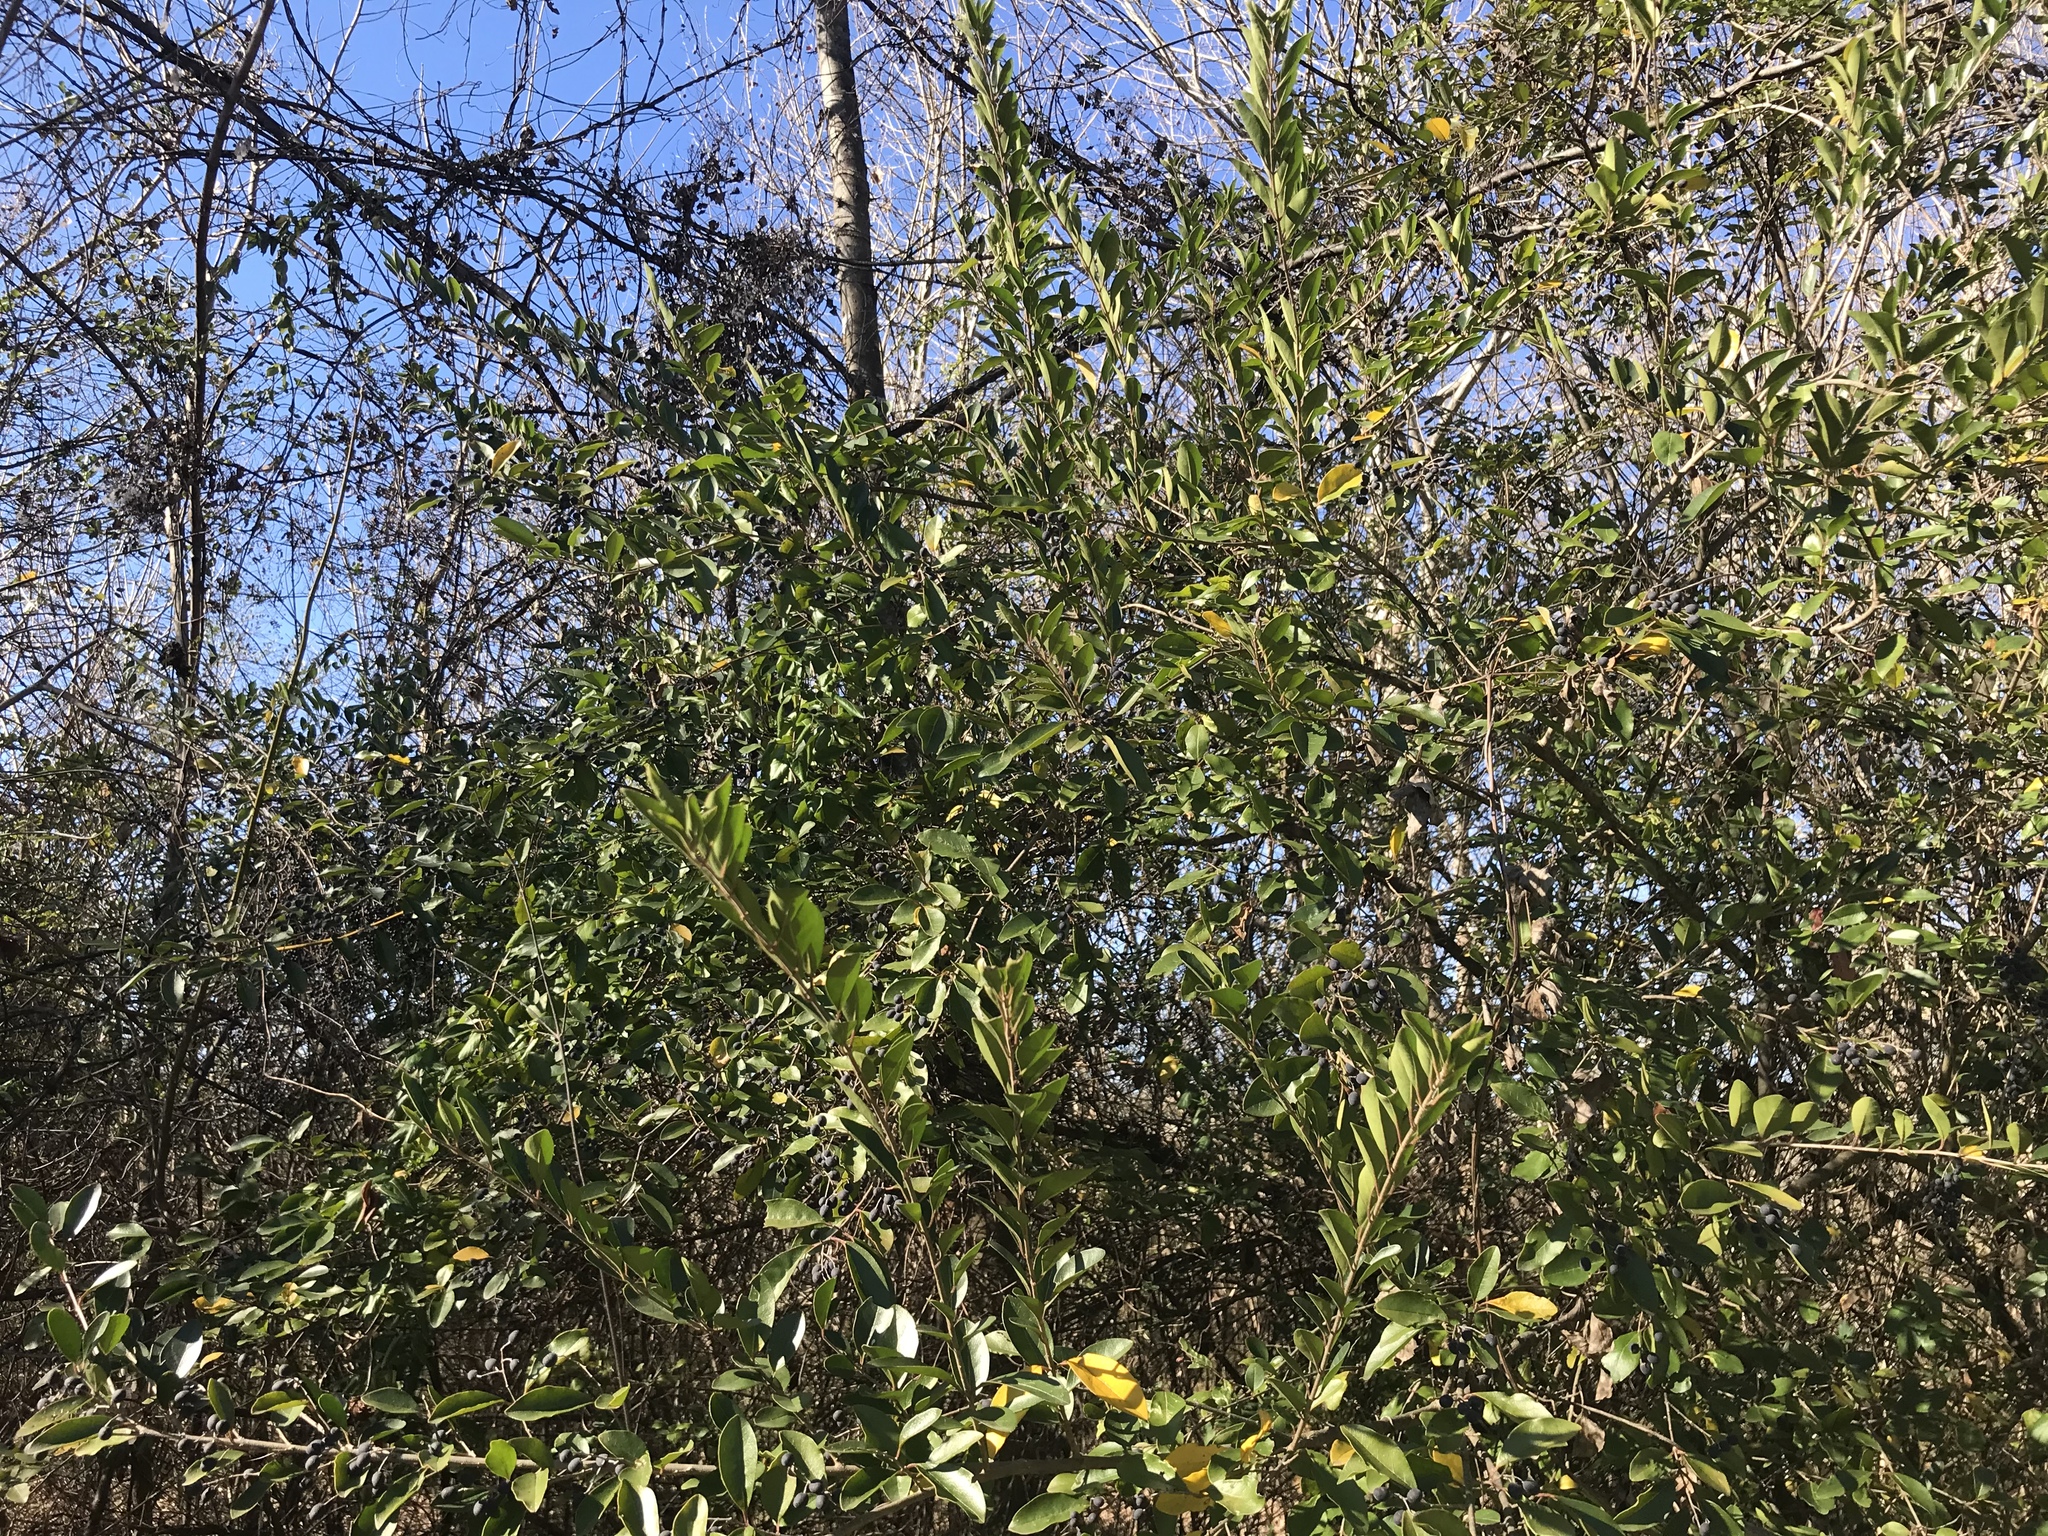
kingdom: Plantae
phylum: Tracheophyta
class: Magnoliopsida
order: Lamiales
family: Oleaceae
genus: Ligustrum
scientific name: Ligustrum sinense
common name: Chinese privet
